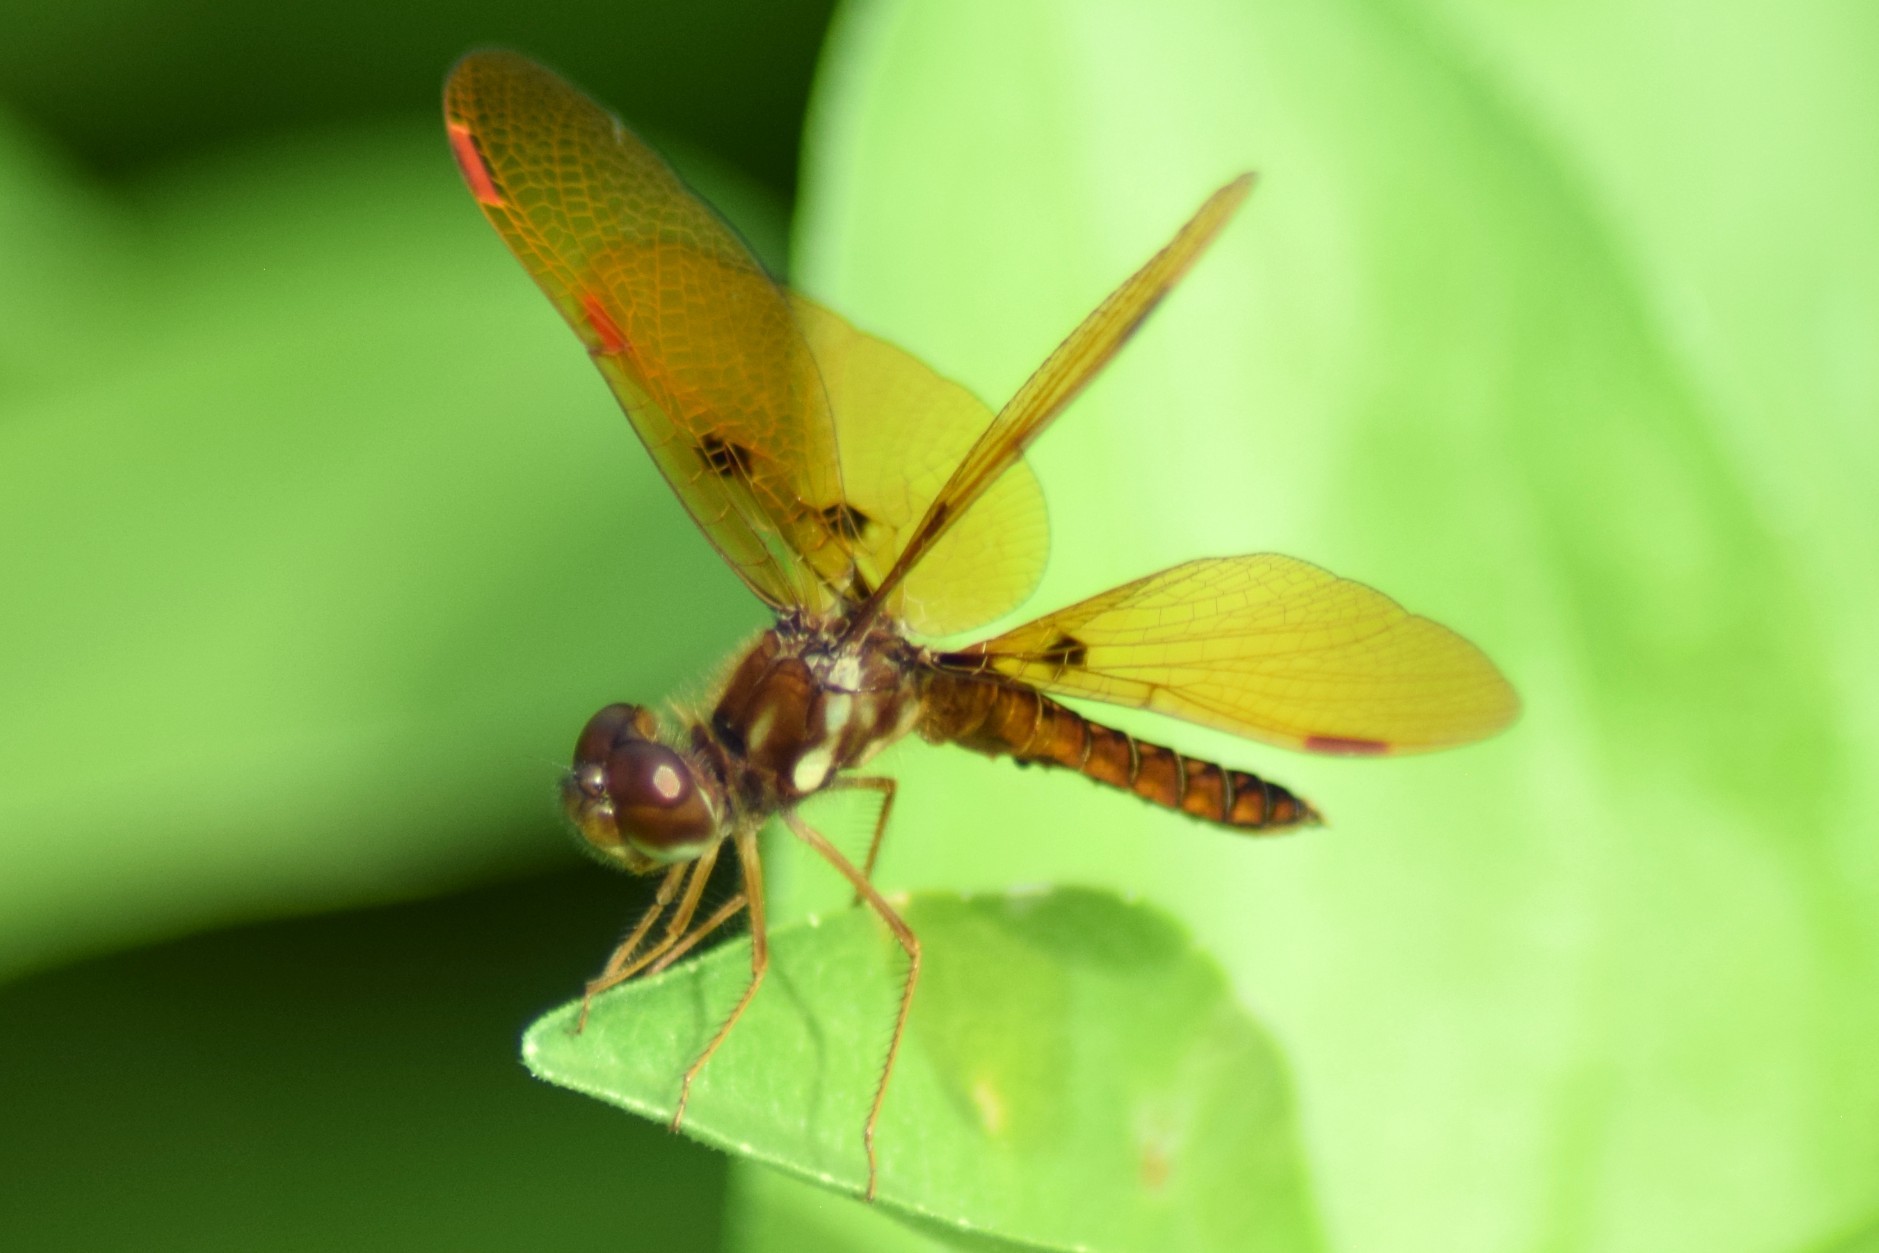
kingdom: Animalia
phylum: Arthropoda
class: Insecta
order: Odonata
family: Libellulidae
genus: Perithemis
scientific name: Perithemis tenera
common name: Eastern amberwing
